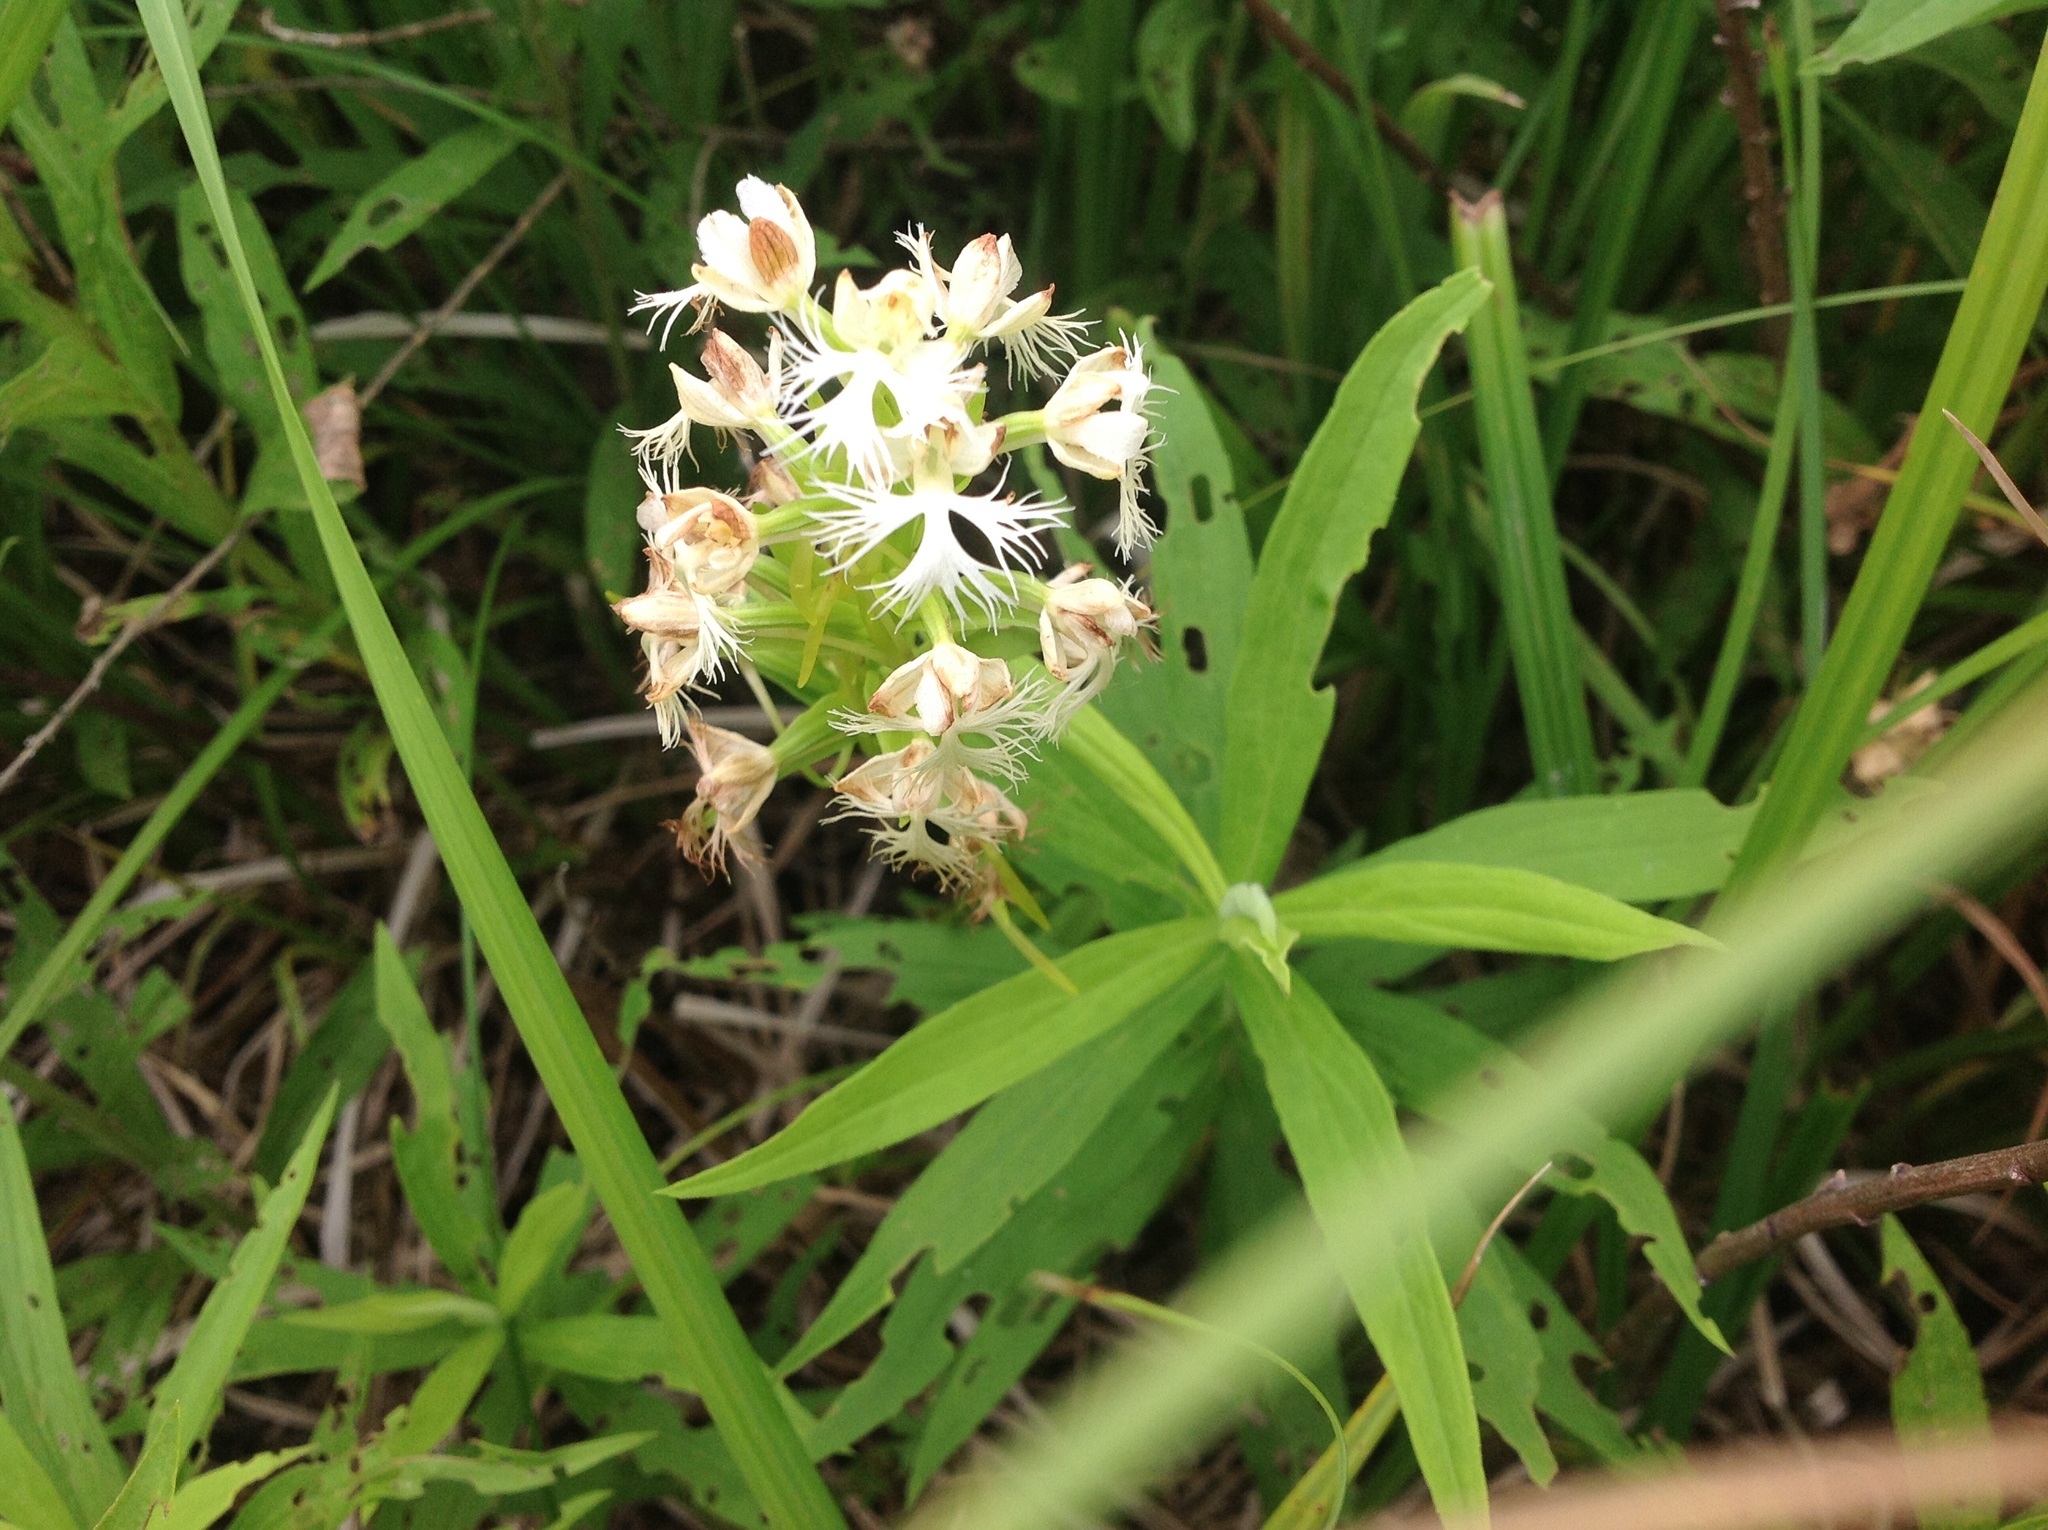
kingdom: Plantae
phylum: Tracheophyta
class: Liliopsida
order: Asparagales
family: Orchidaceae
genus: Platanthera
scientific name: Platanthera leucophaea
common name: Eastern prairie white-fringed orchid
